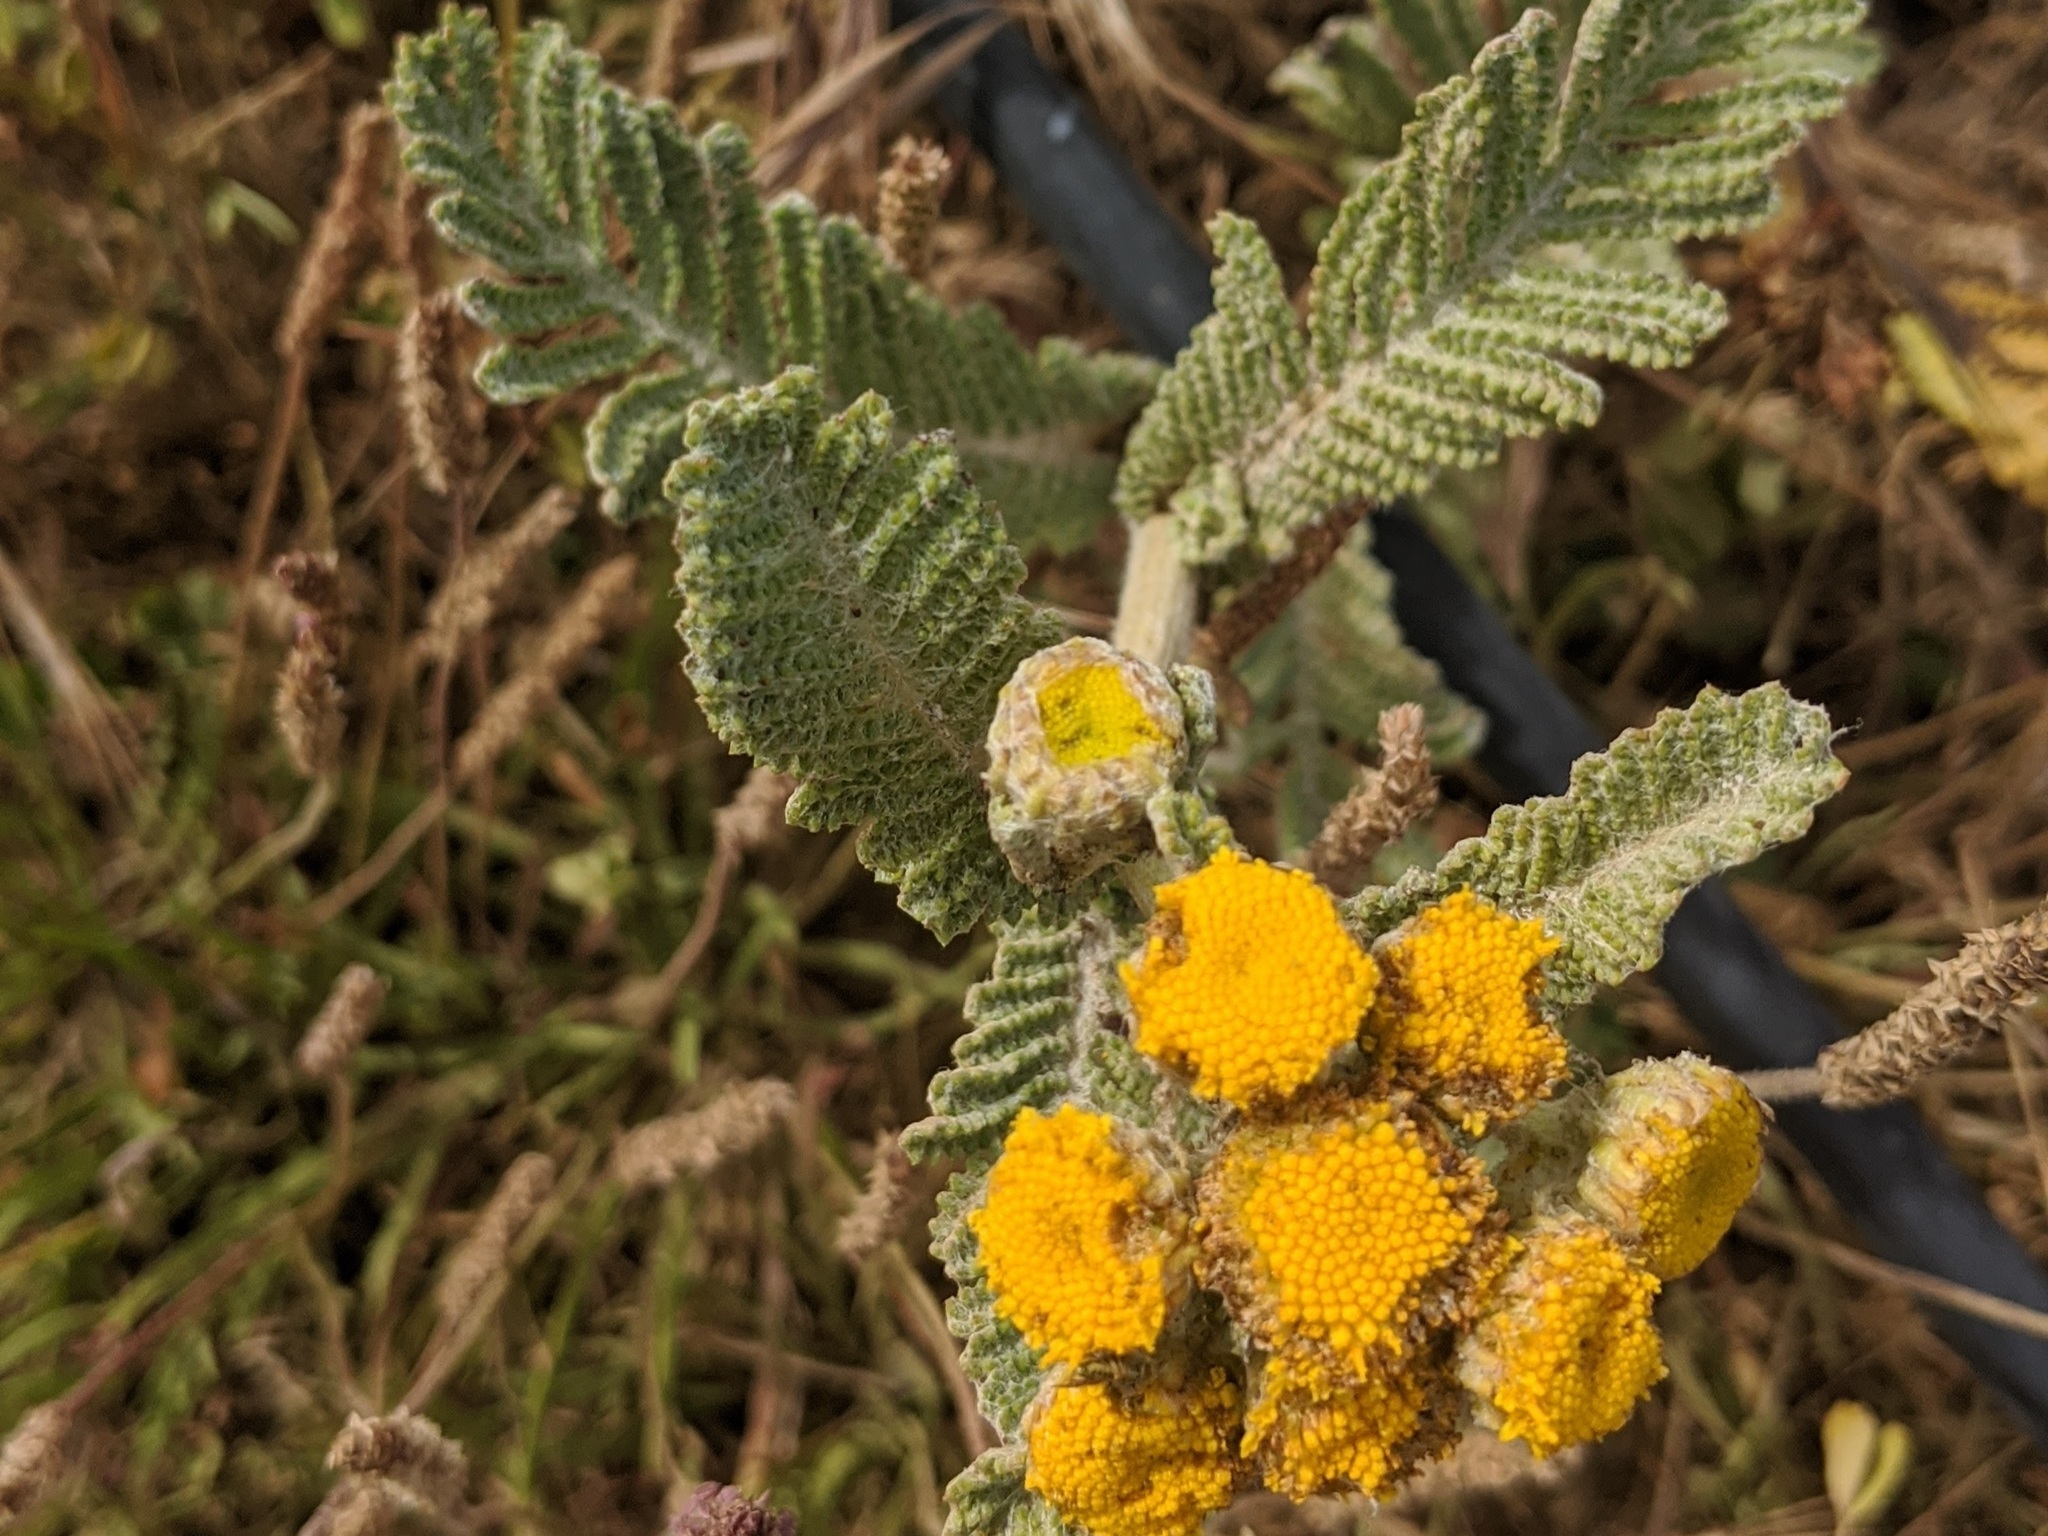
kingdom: Plantae
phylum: Tracheophyta
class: Magnoliopsida
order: Asterales
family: Asteraceae
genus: Tanacetum
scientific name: Tanacetum bipinnatum
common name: Dwarf tansy
